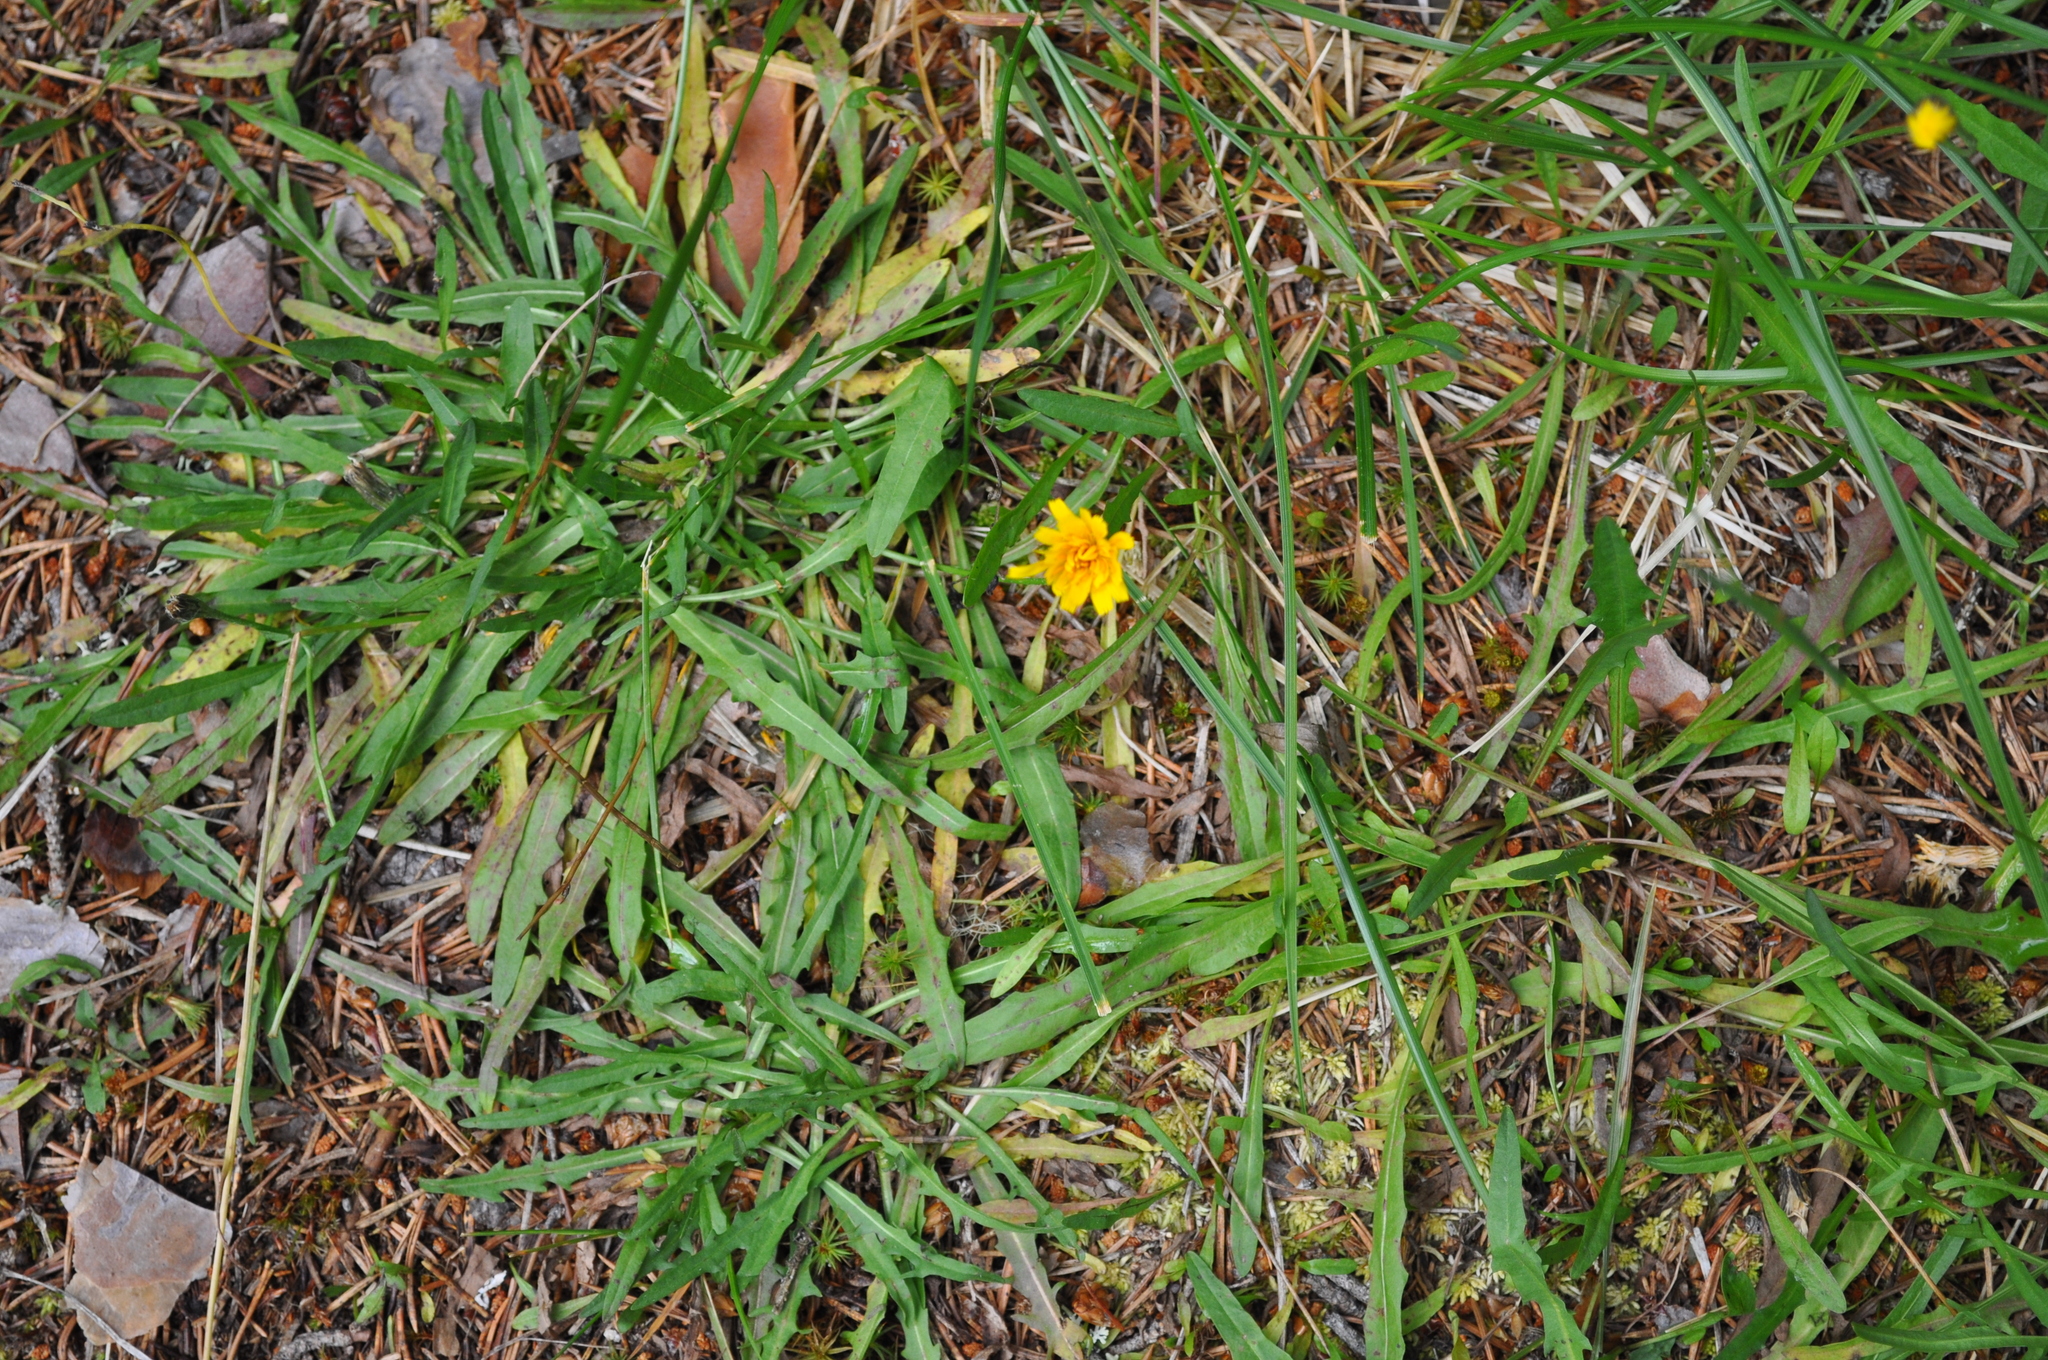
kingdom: Plantae
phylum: Tracheophyta
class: Magnoliopsida
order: Asterales
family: Asteraceae
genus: Scorzoneroides
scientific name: Scorzoneroides autumnalis
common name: Autumn hawkbit
